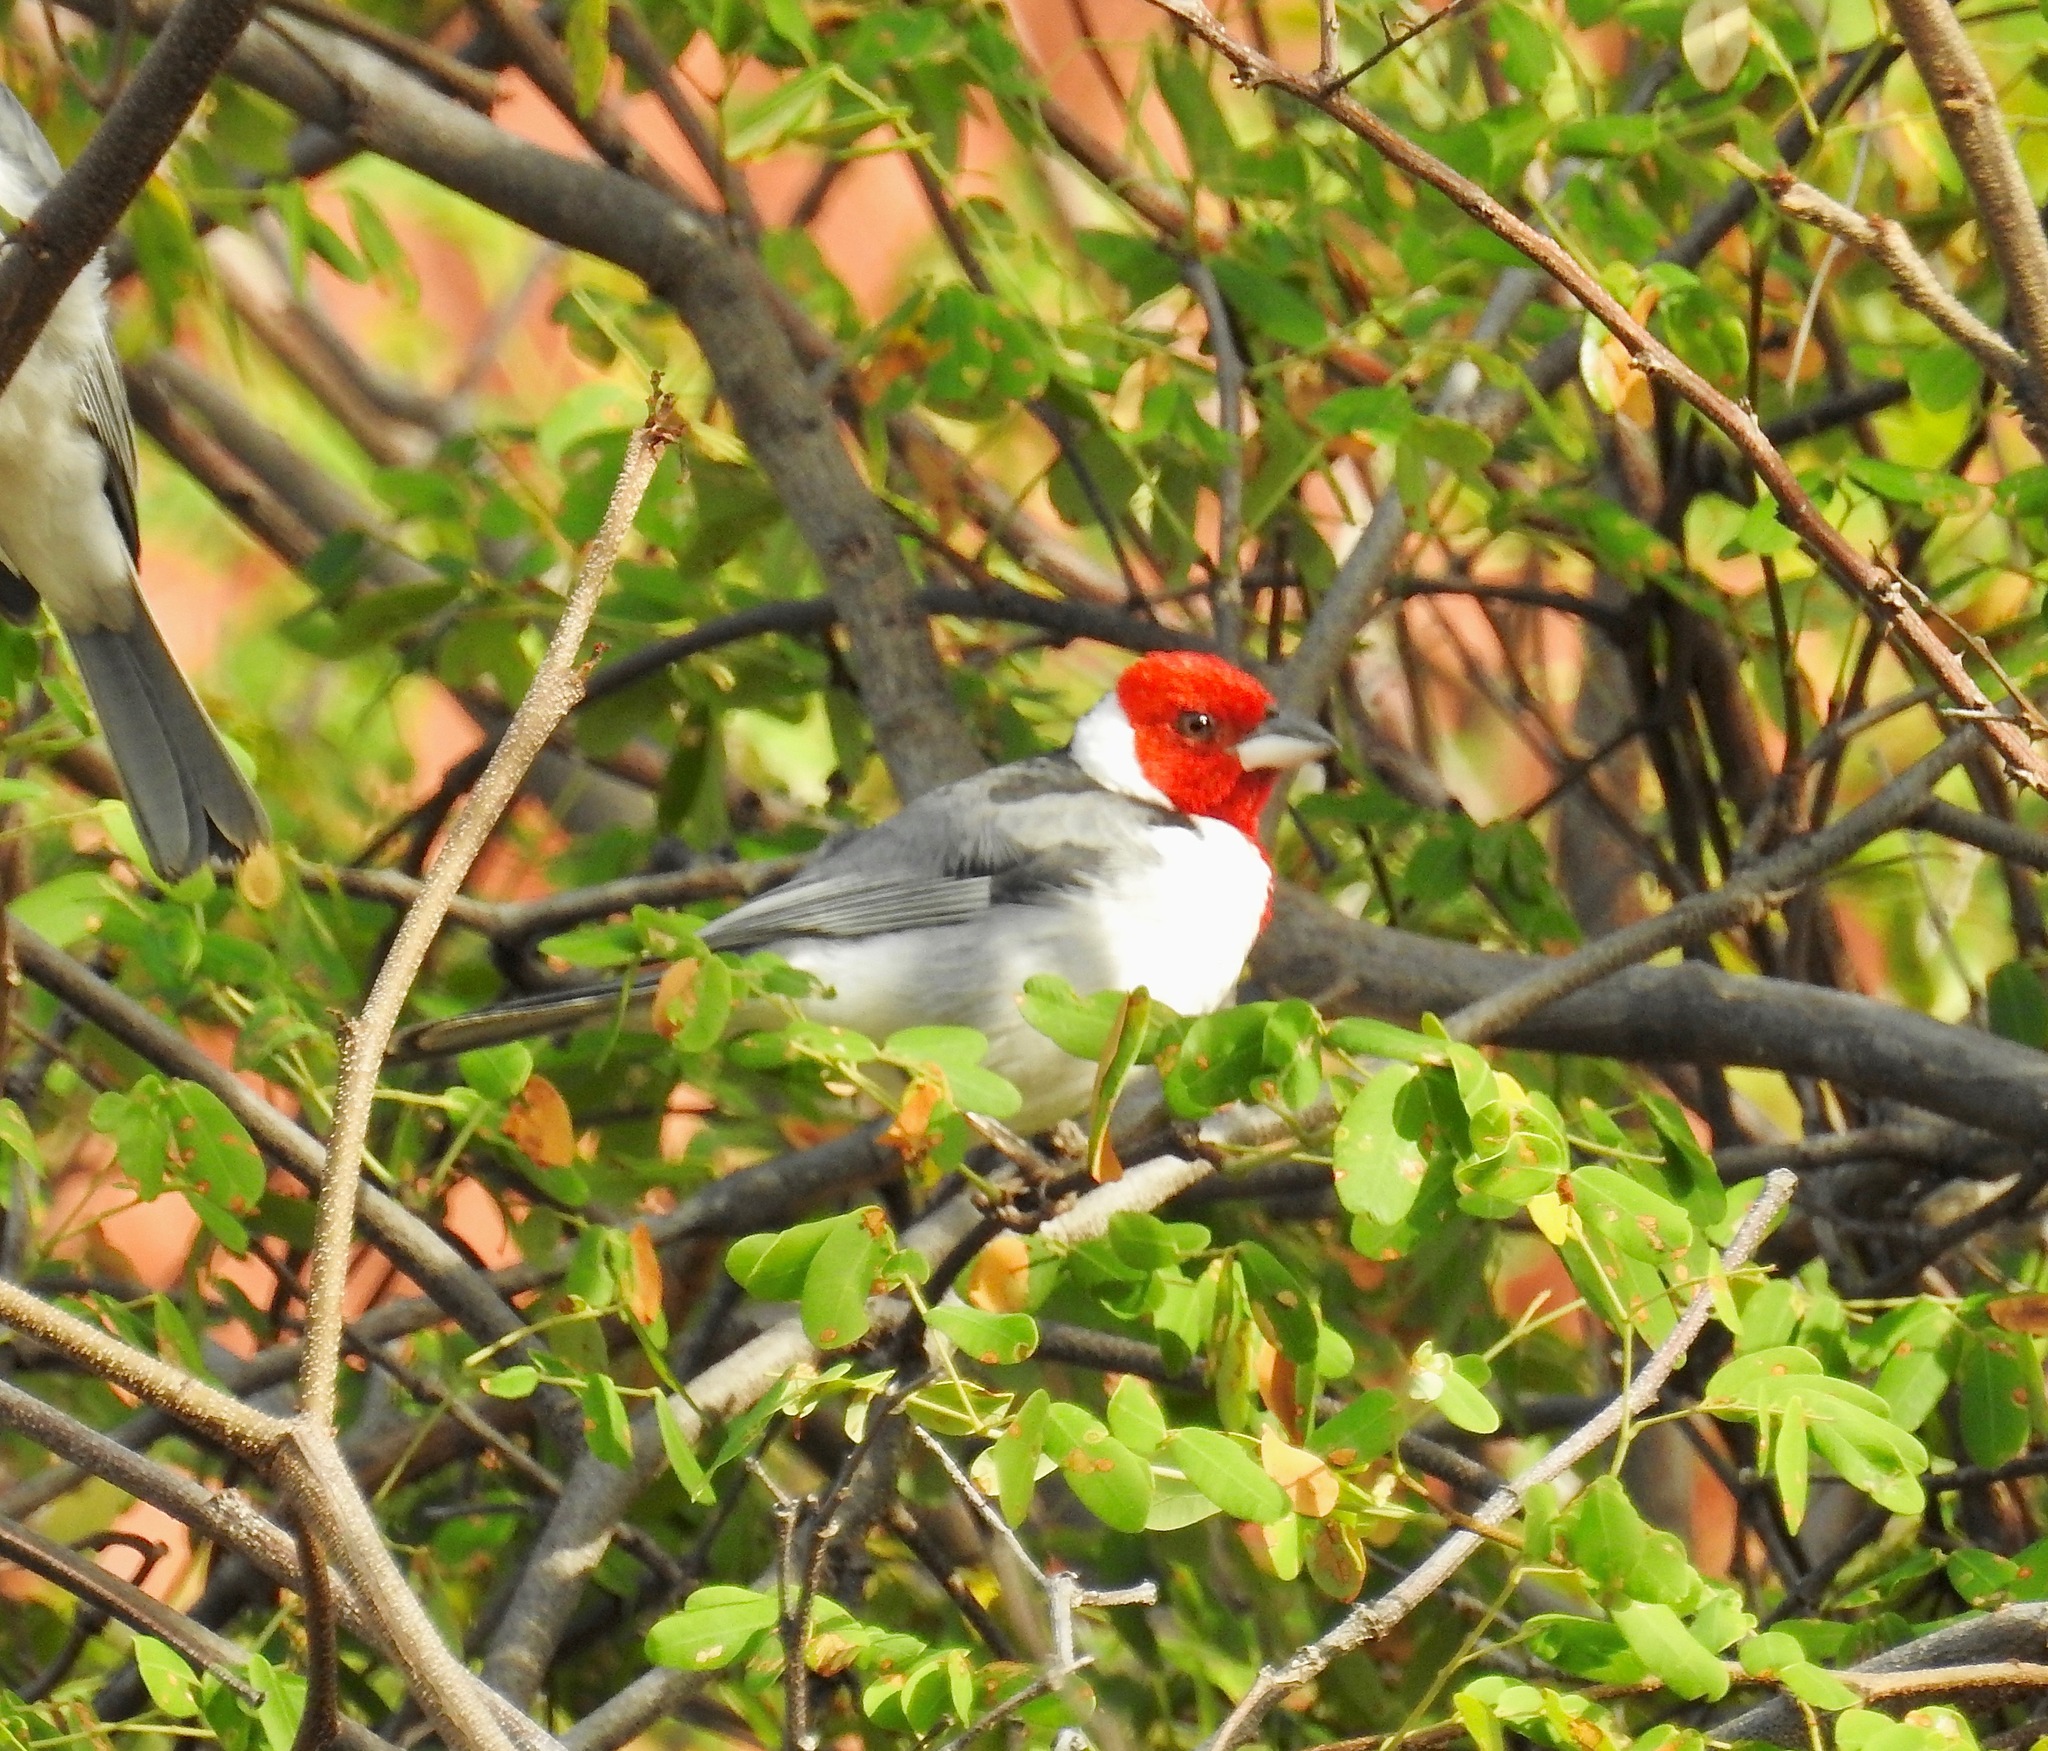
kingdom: Animalia
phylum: Chordata
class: Aves
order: Passeriformes
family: Thraupidae
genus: Paroaria
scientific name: Paroaria dominicana
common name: Red-cowled cardinal
